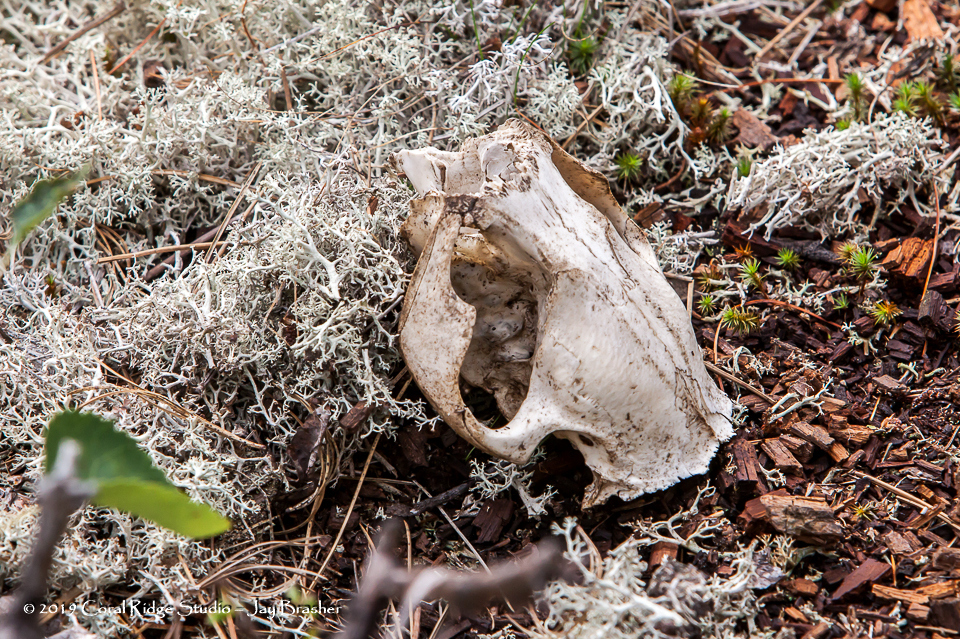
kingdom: Animalia
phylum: Chordata
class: Mammalia
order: Rodentia
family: Castoridae
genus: Castor
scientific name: Castor canadensis
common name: American beaver
